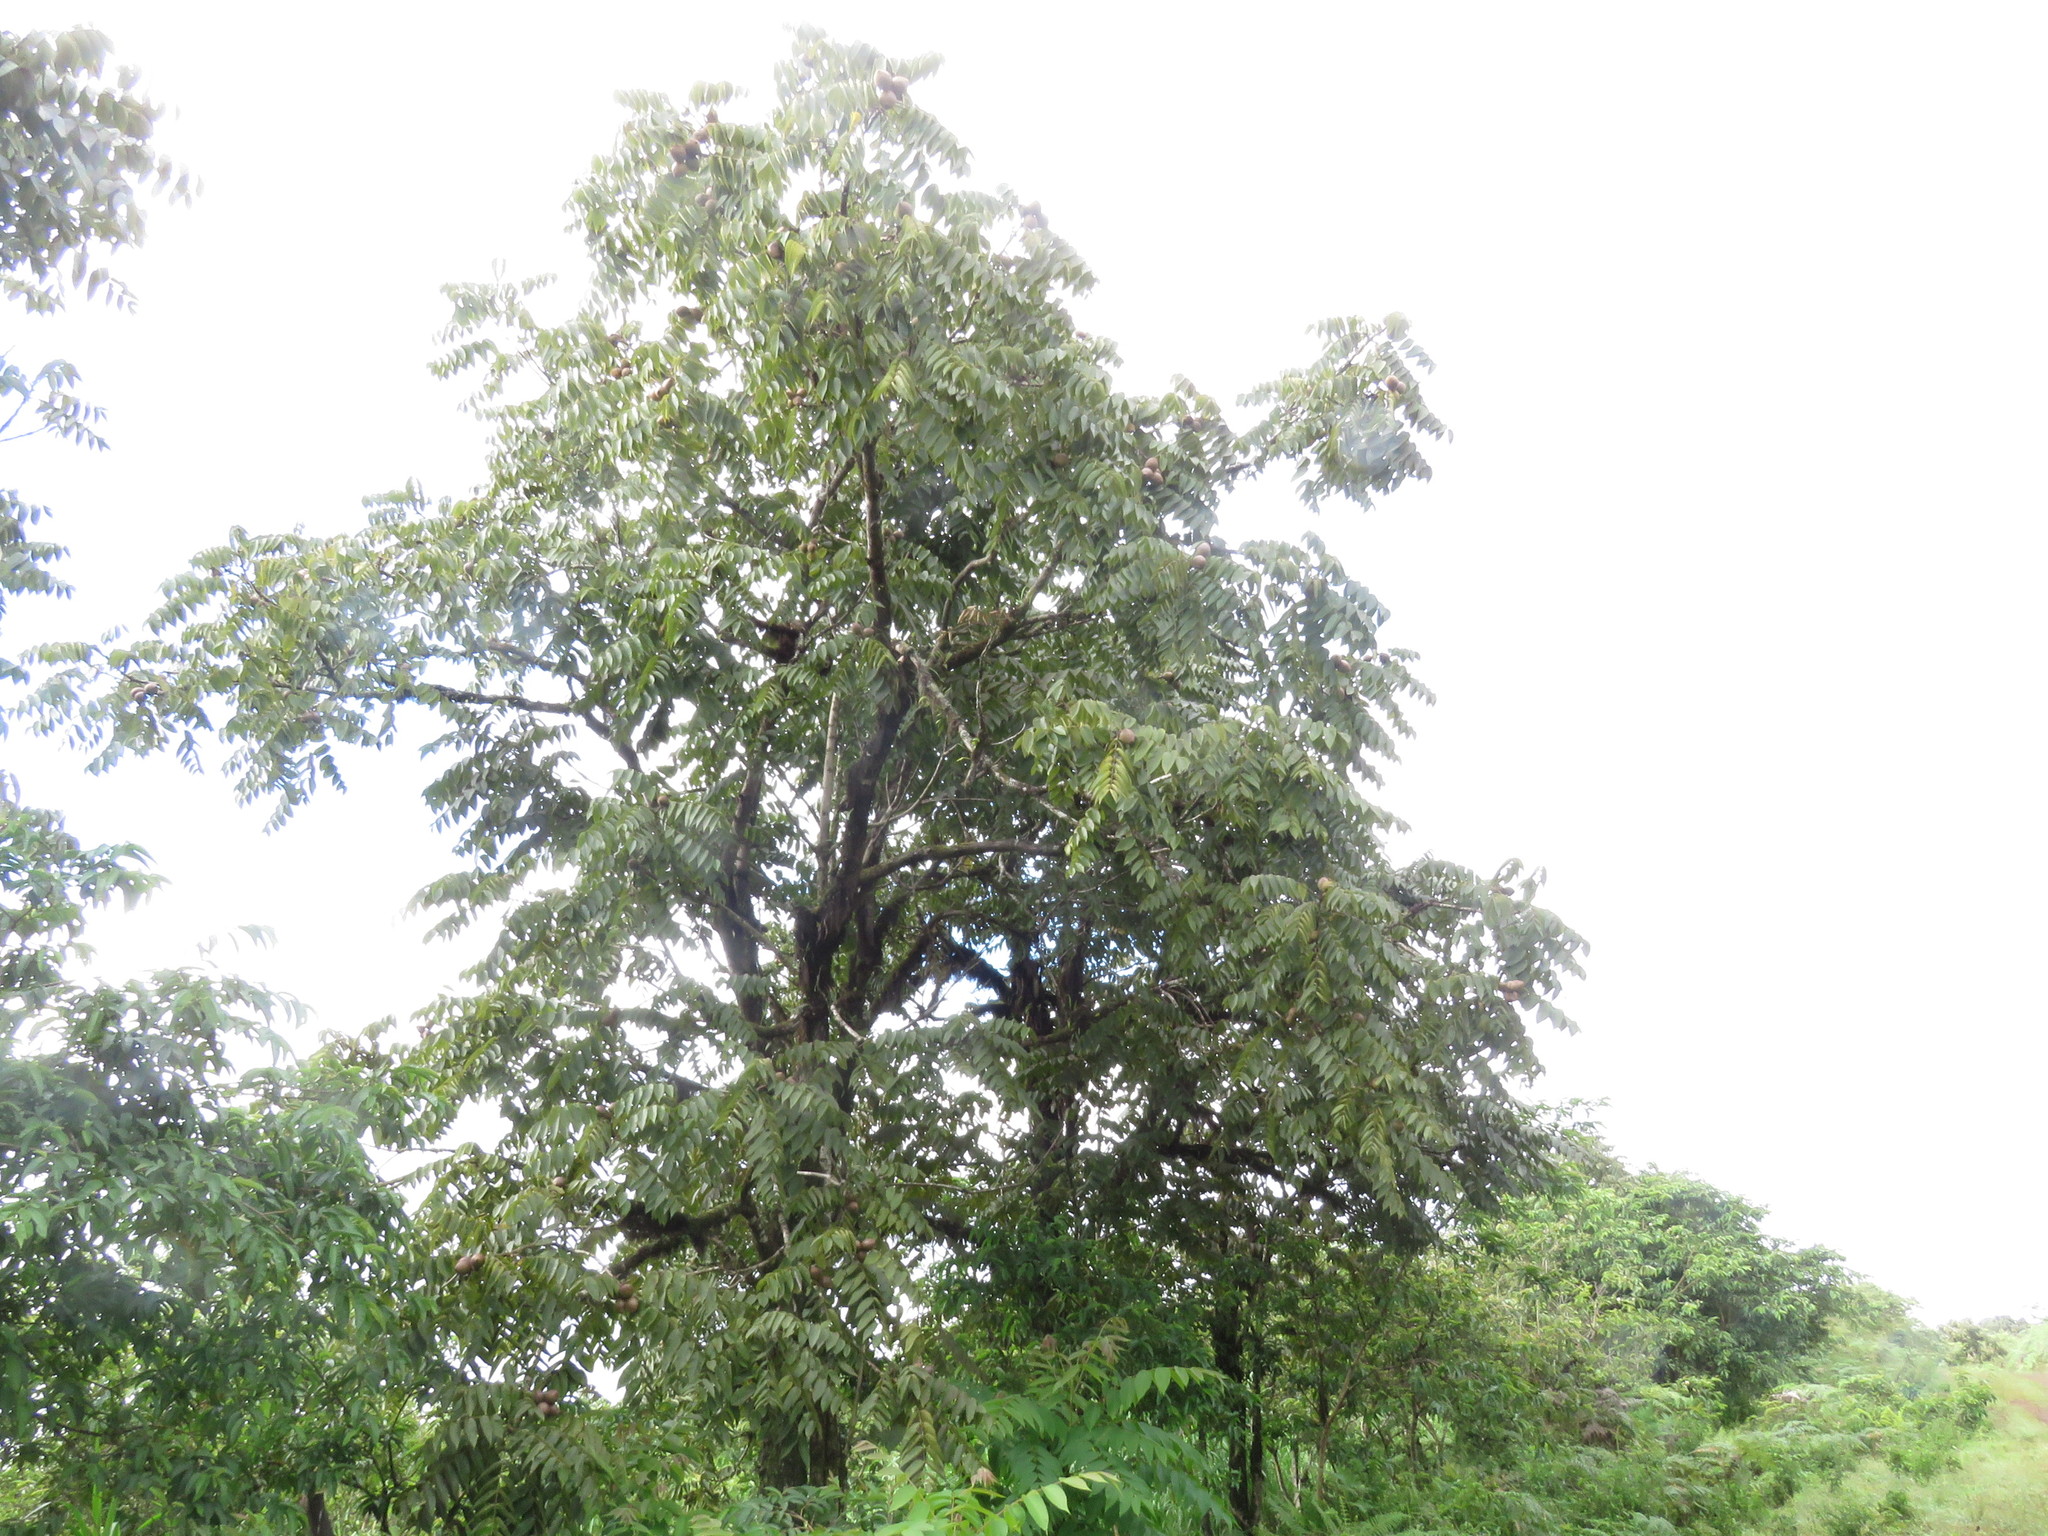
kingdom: Plantae
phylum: Tracheophyta
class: Magnoliopsida
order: Fagales
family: Juglandaceae
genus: Juglans
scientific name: Juglans neotropica
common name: Andean walnut
